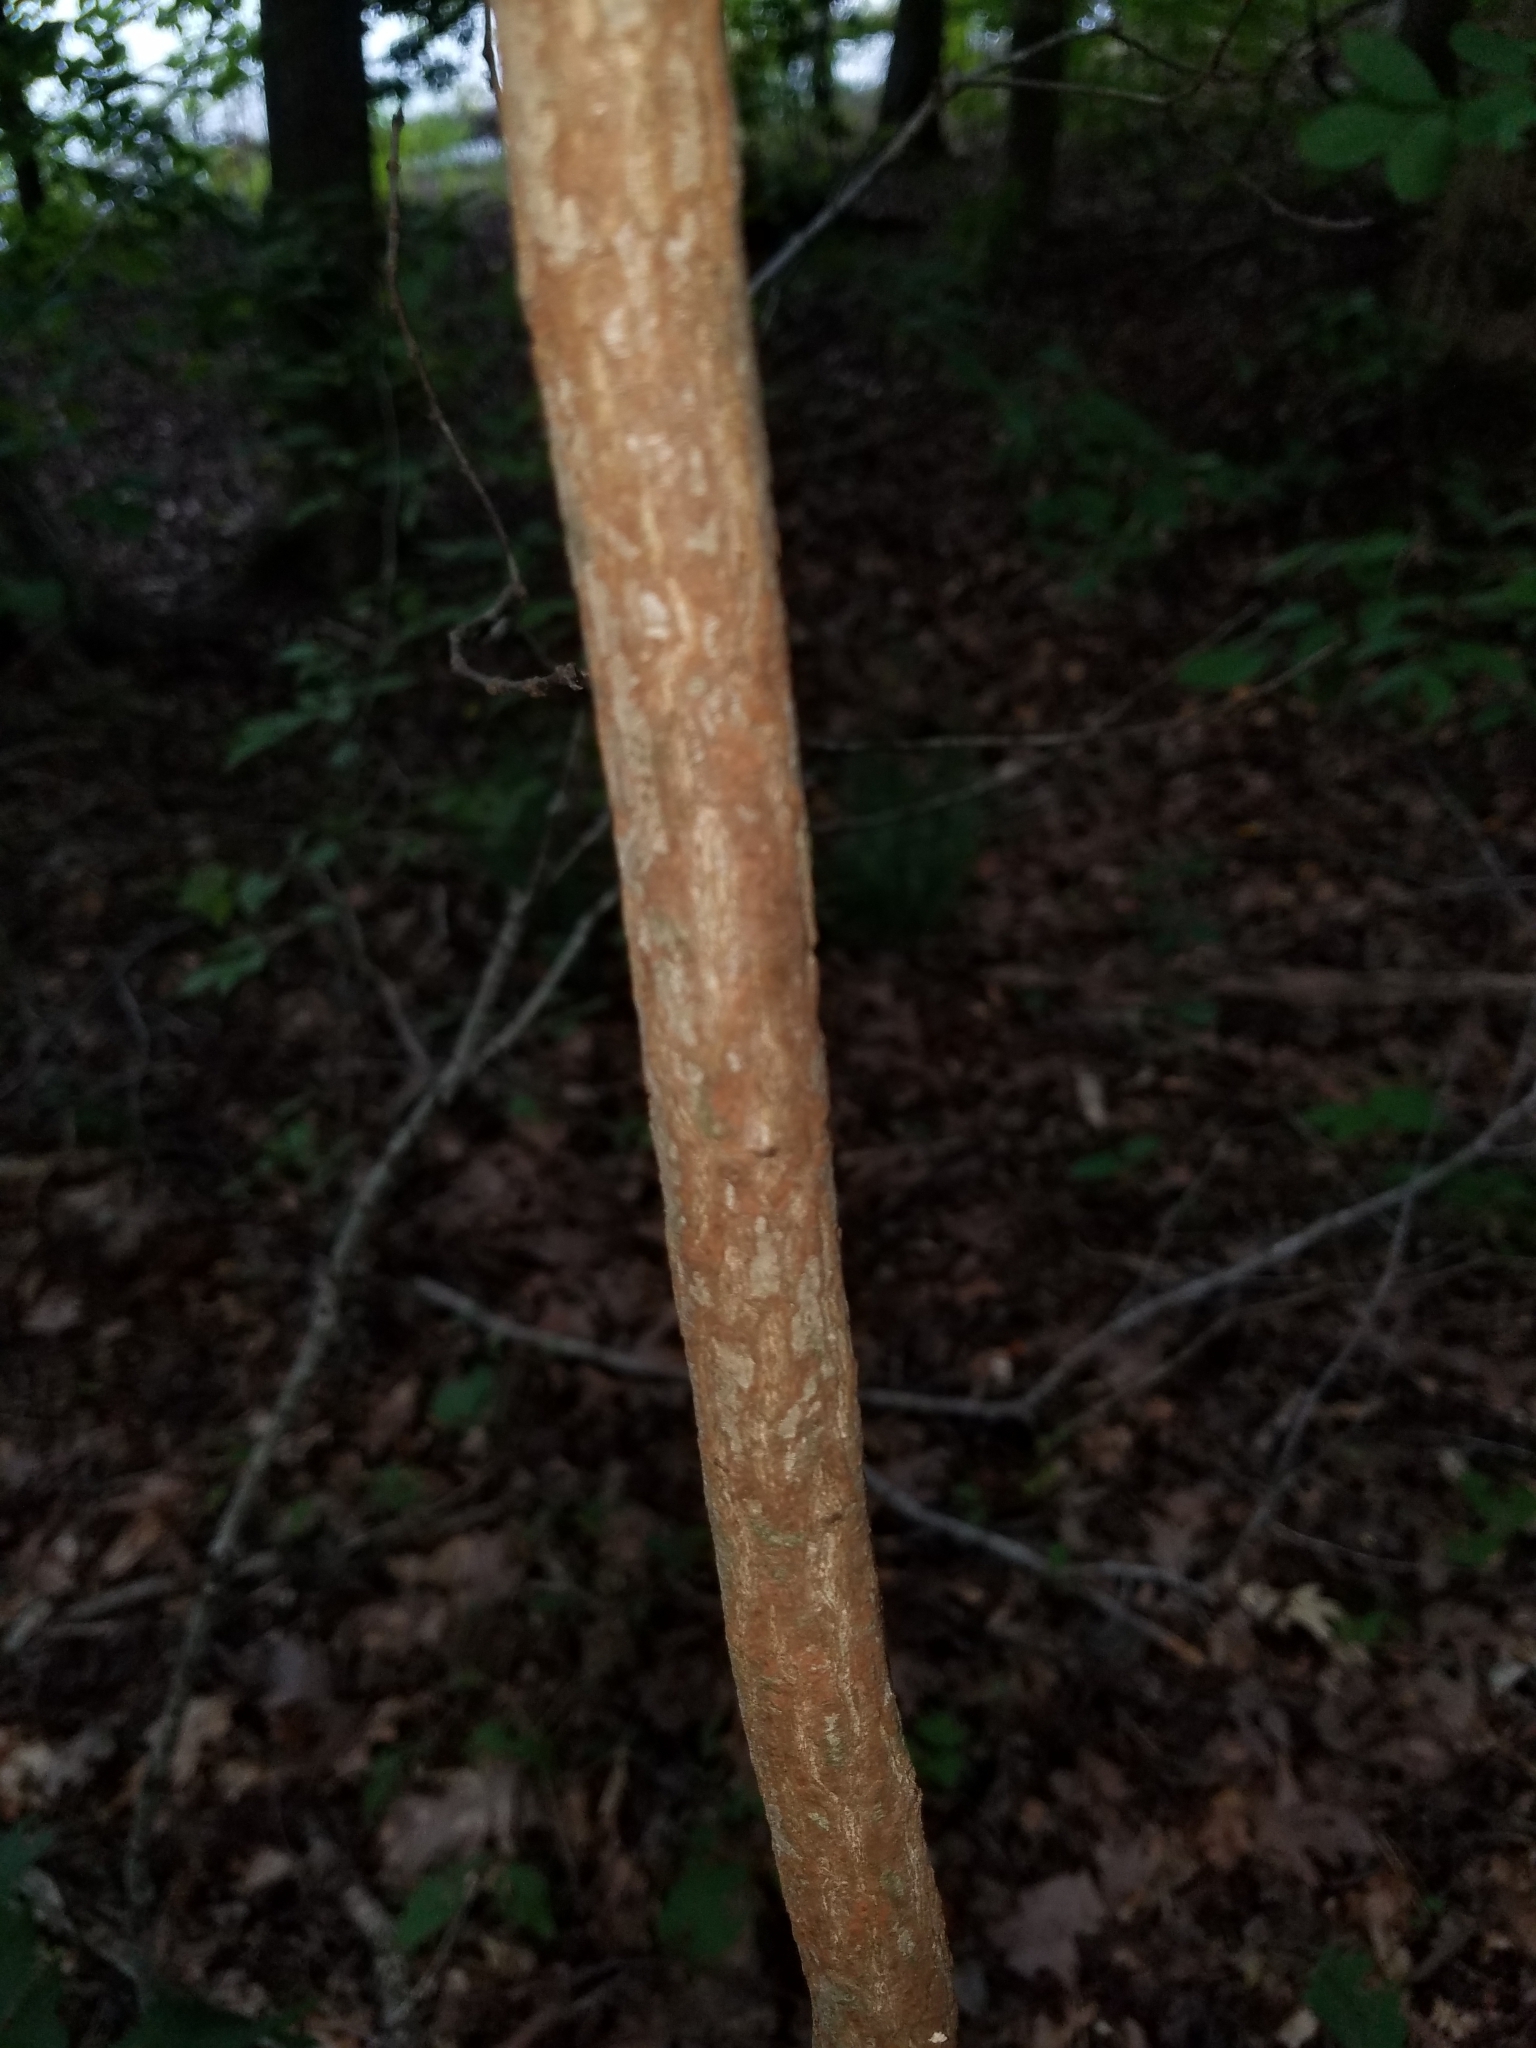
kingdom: Plantae
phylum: Tracheophyta
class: Magnoliopsida
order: Laurales
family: Lauraceae
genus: Sassafras
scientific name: Sassafras albidum
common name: Sassafras
